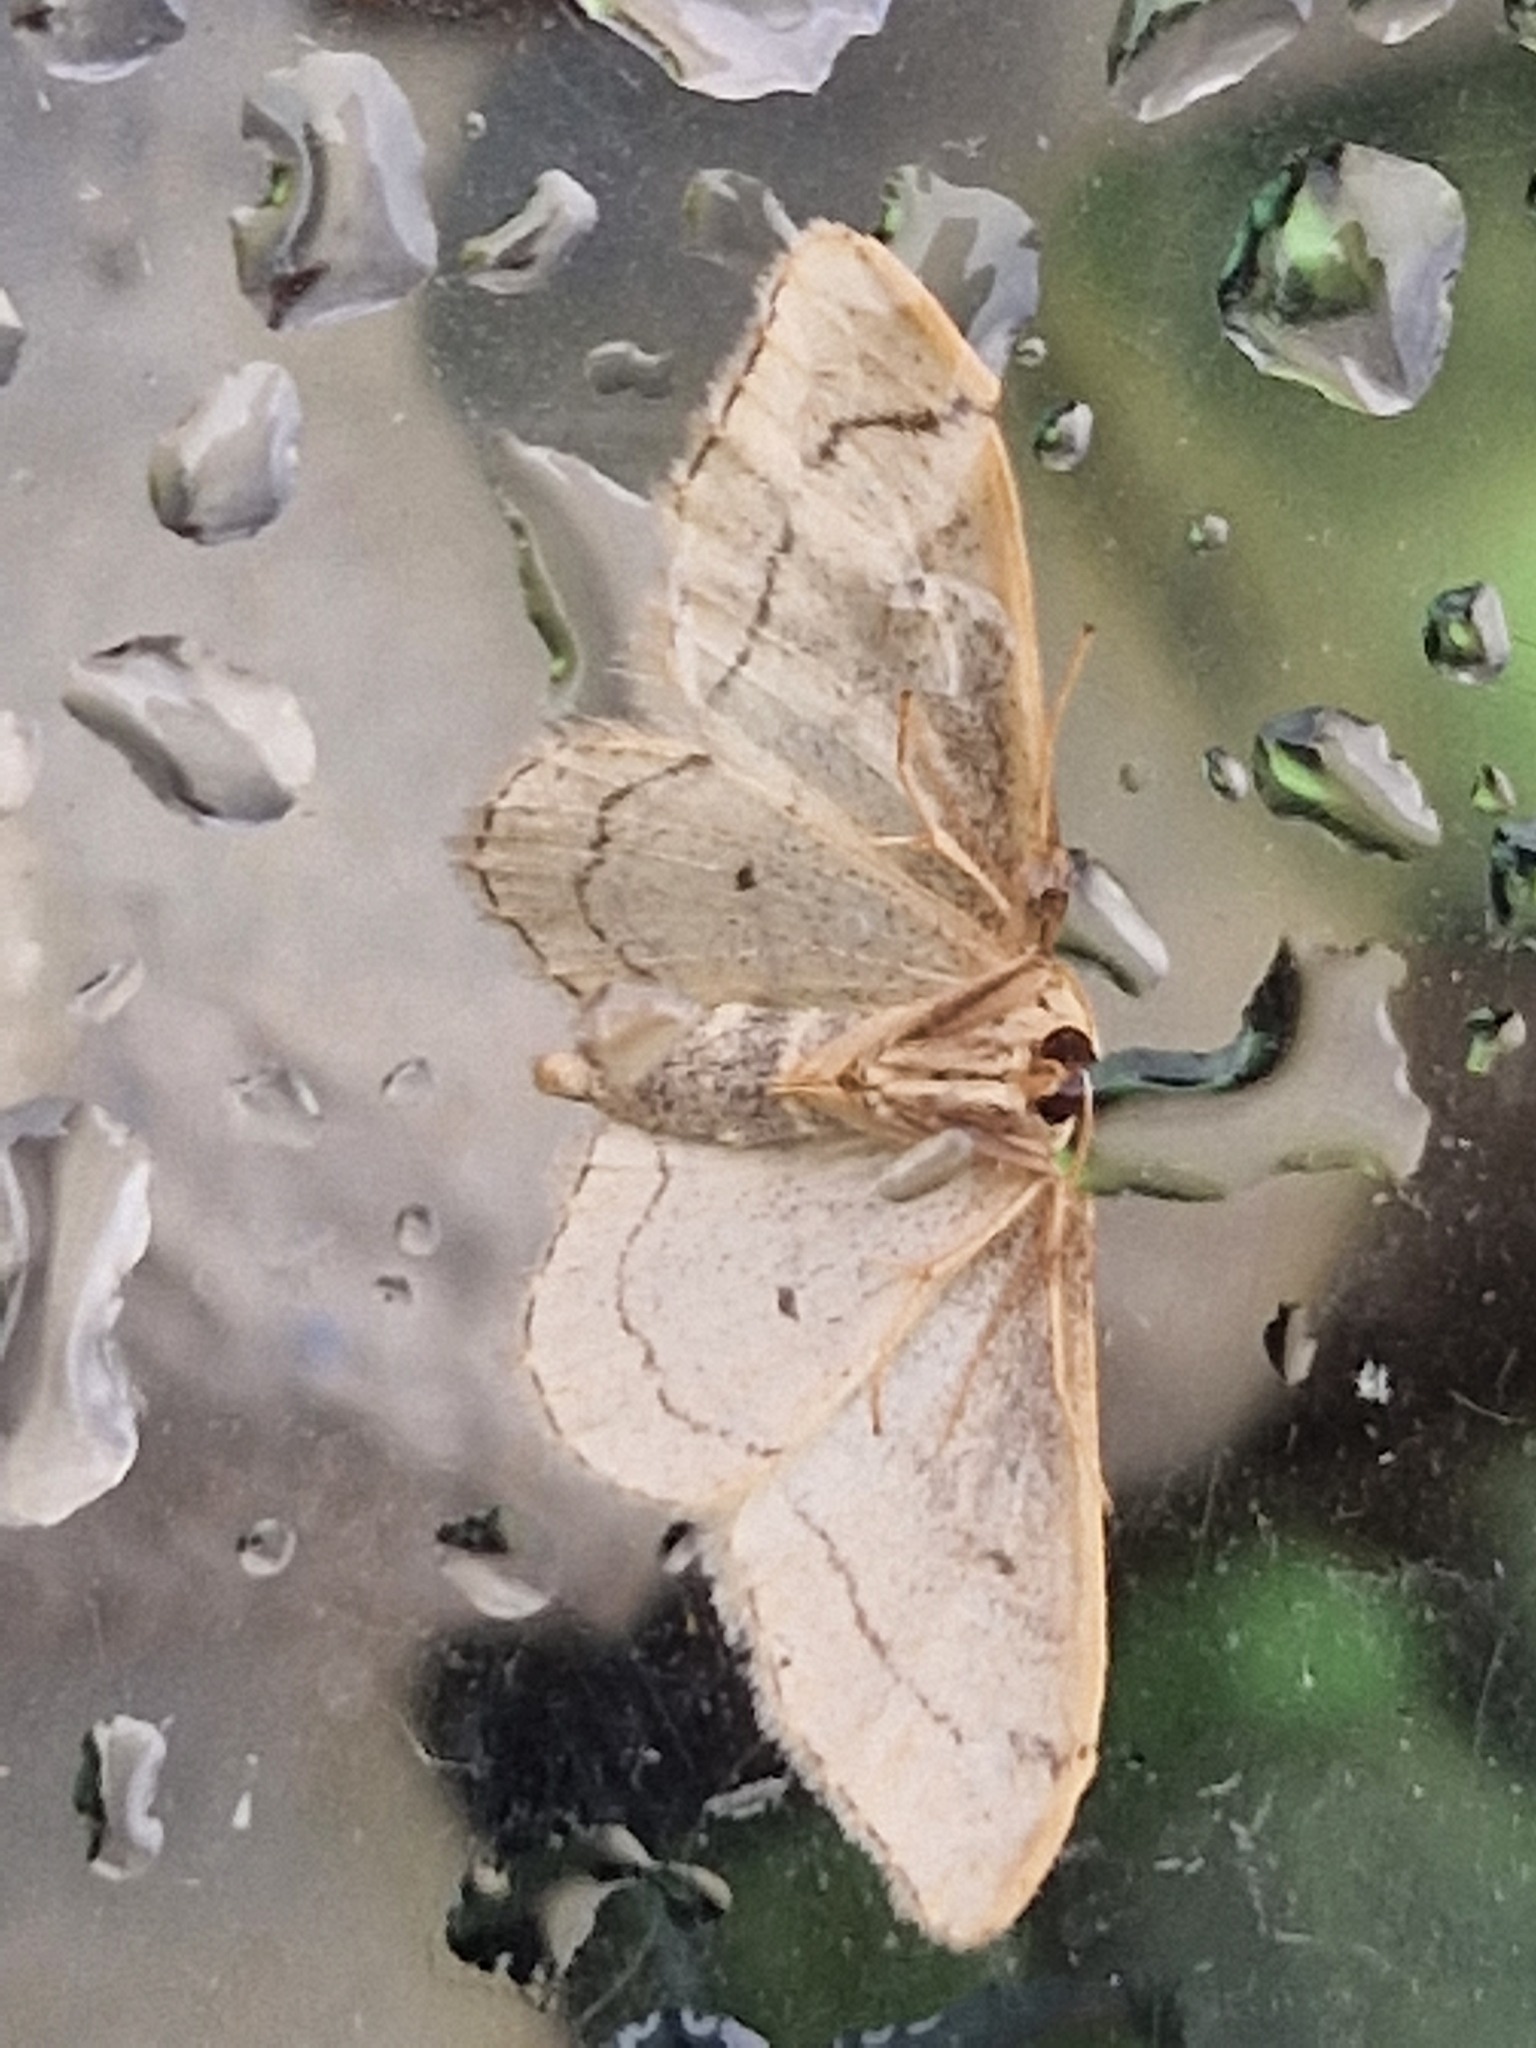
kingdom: Animalia
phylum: Arthropoda
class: Insecta
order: Lepidoptera
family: Geometridae
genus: Idaea
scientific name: Idaea aversata
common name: Riband wave
